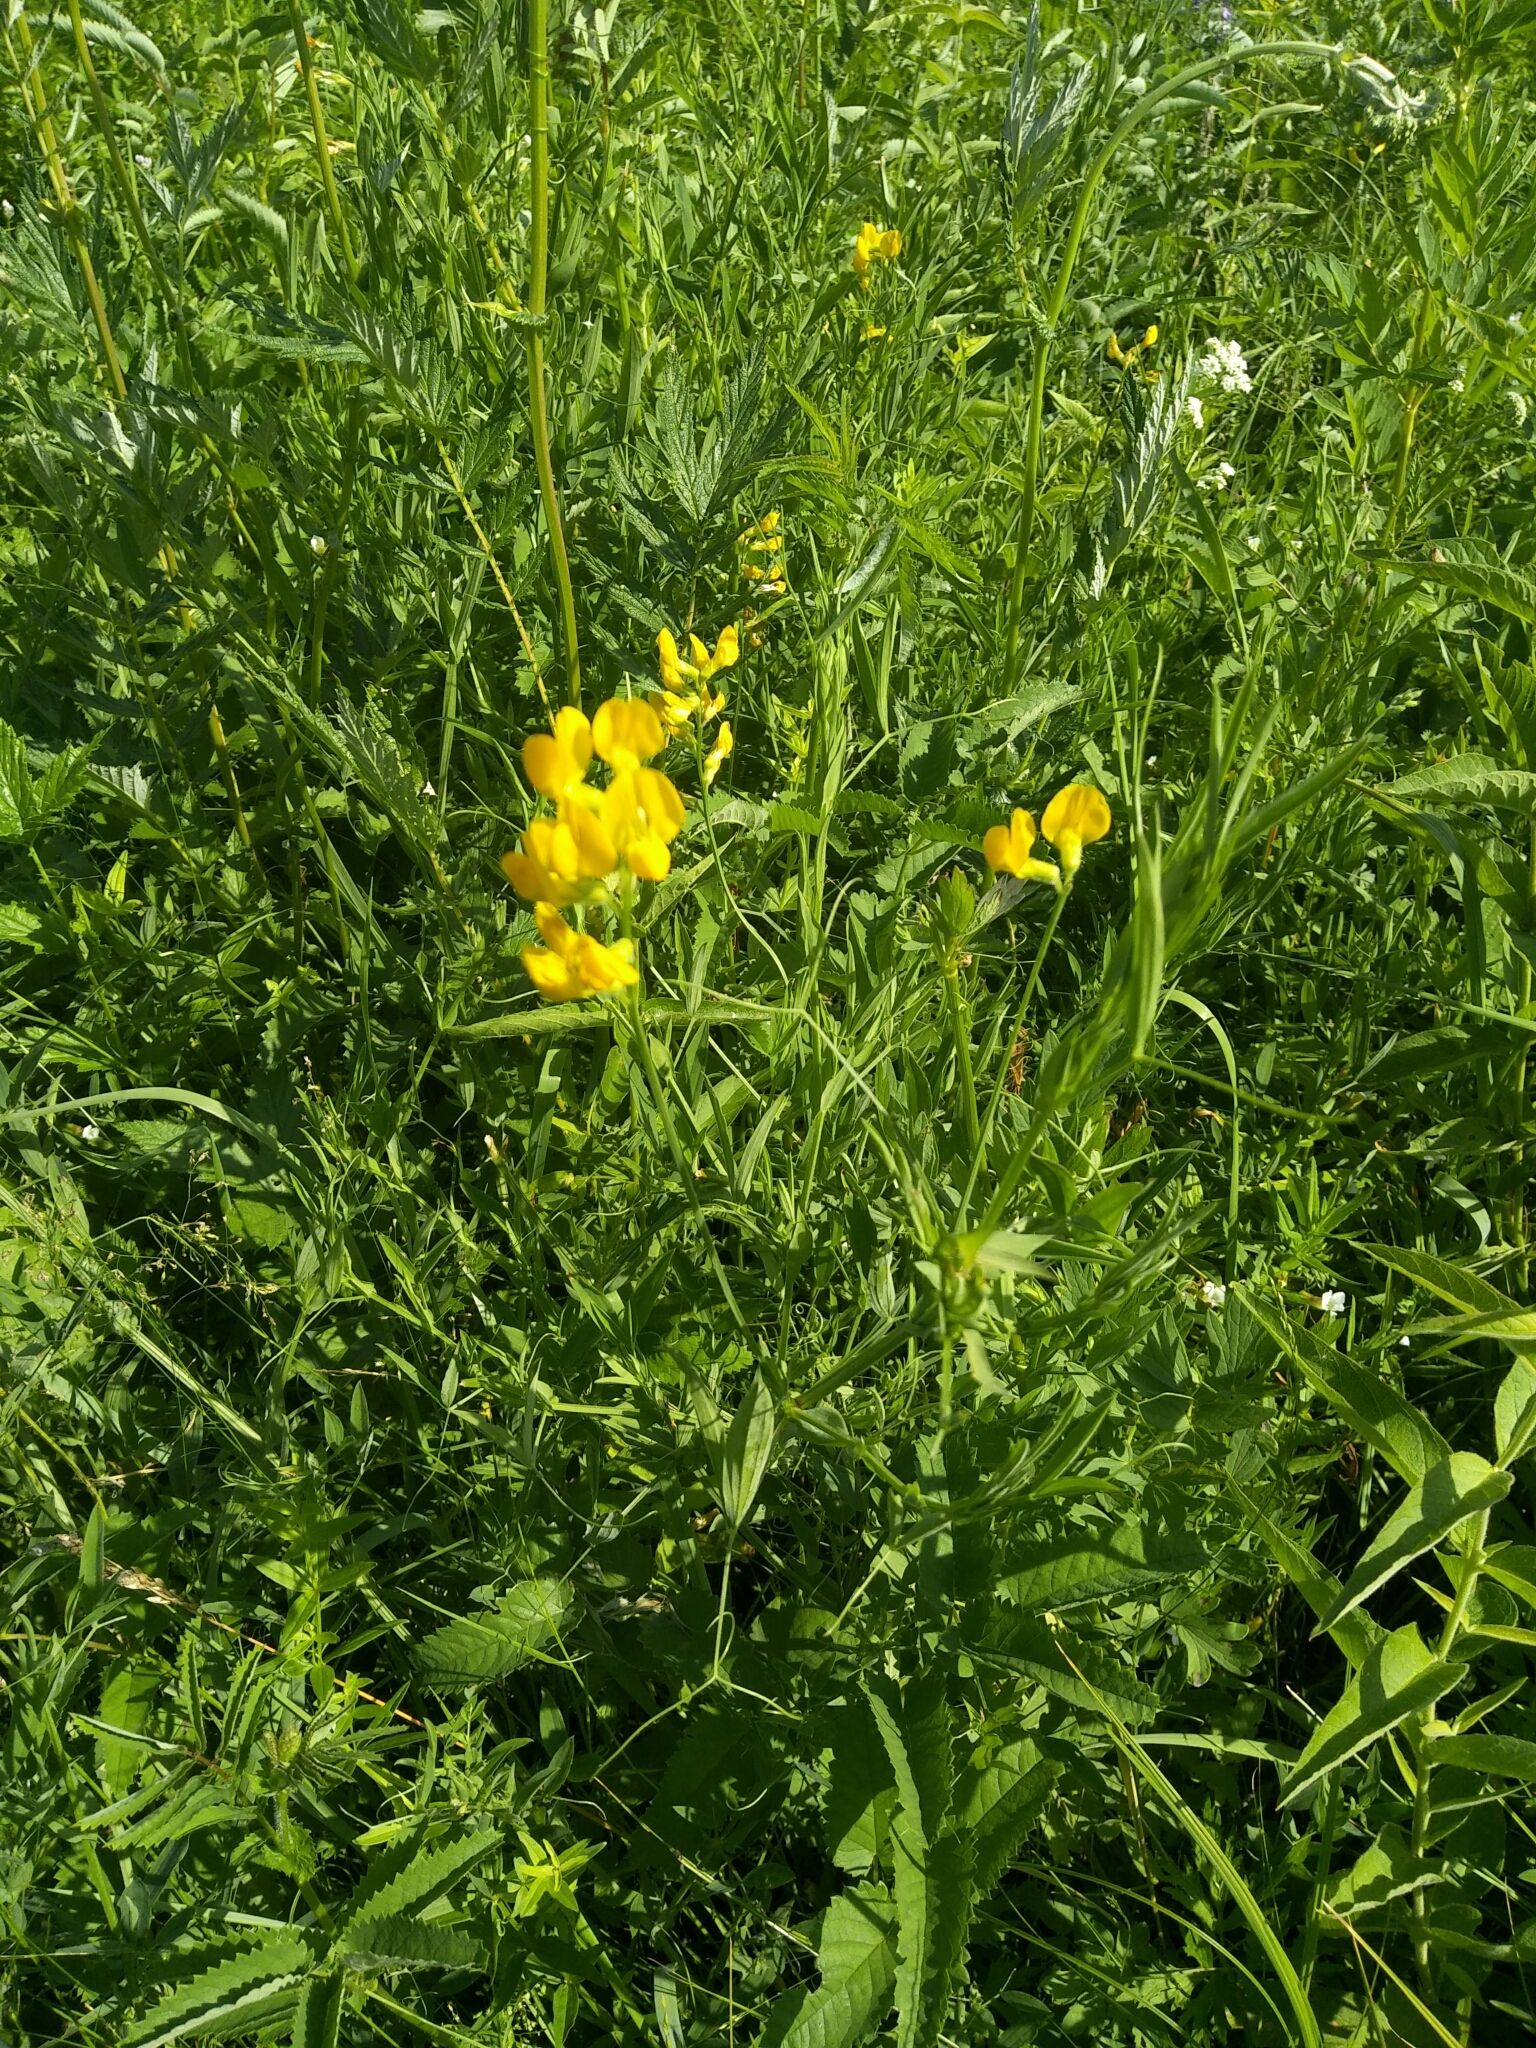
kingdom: Plantae
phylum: Tracheophyta
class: Magnoliopsida
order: Fabales
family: Fabaceae
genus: Lathyrus
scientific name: Lathyrus pratensis
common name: Meadow vetchling
